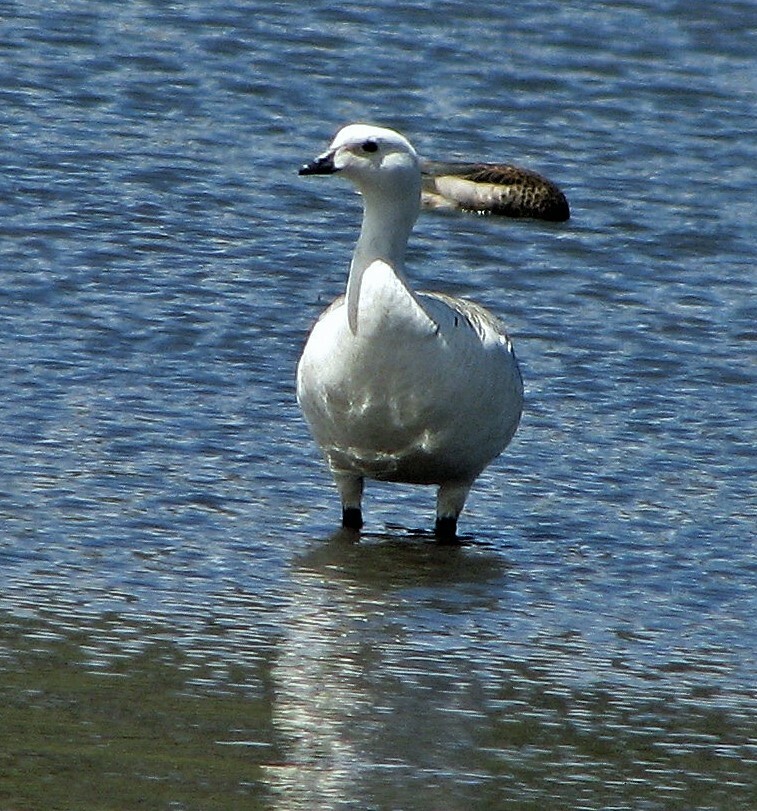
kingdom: Animalia
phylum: Chordata
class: Aves
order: Anseriformes
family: Anatidae
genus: Chloephaga
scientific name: Chloephaga picta
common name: Upland goose
